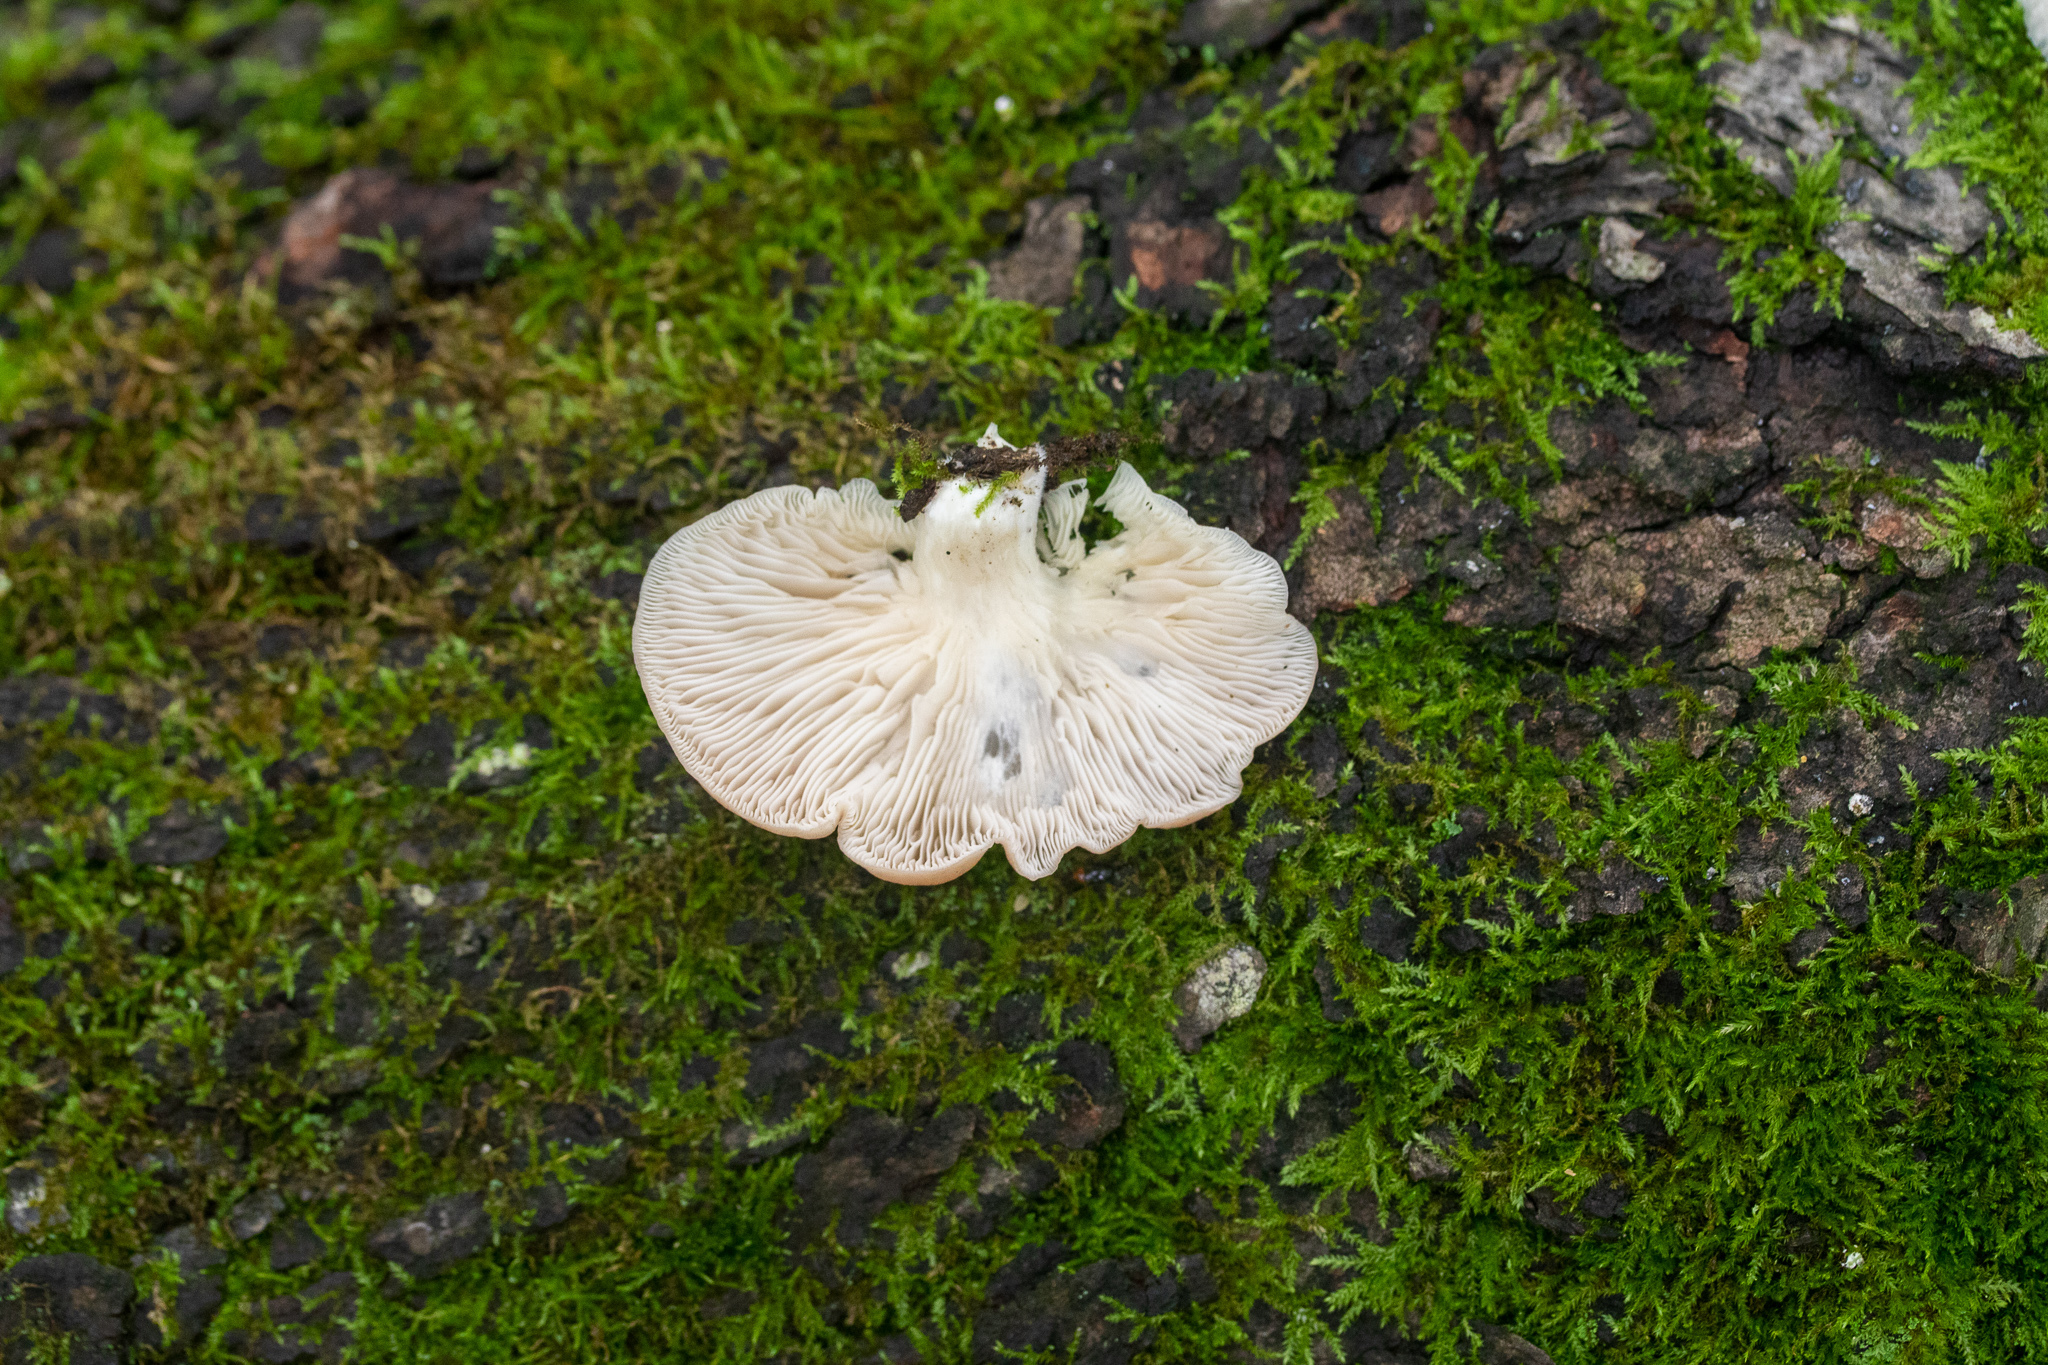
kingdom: Fungi
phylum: Basidiomycota
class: Agaricomycetes
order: Agaricales
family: Pleurotaceae
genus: Pleurotus
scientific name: Pleurotus pulmonarius
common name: Pale oyster
